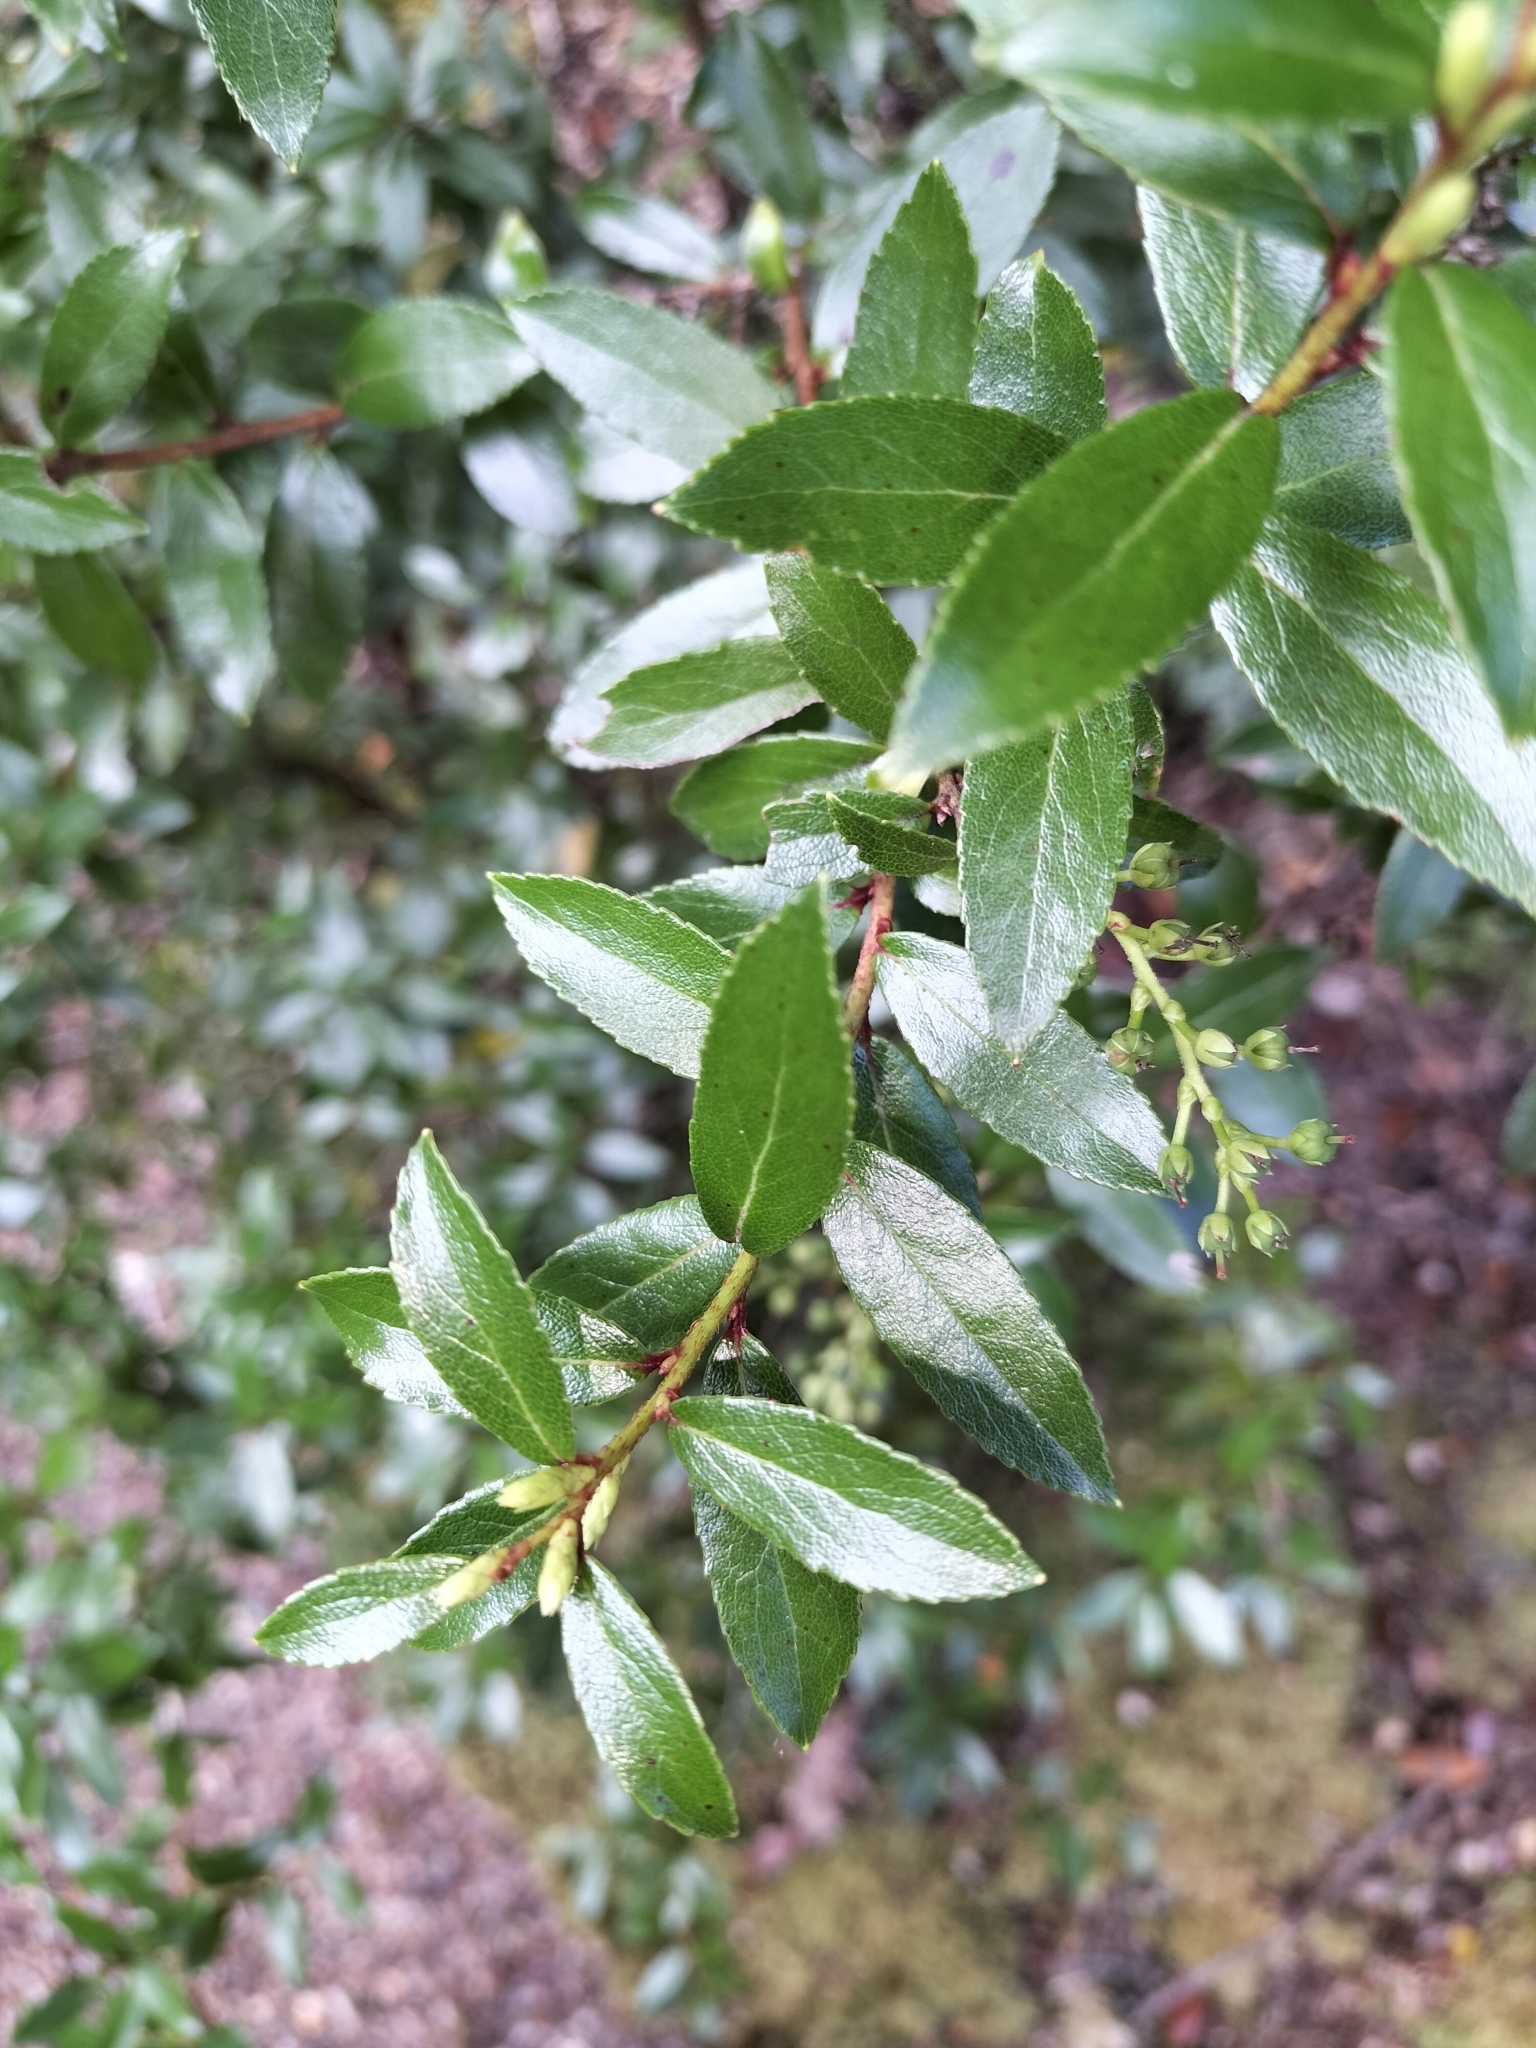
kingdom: Plantae
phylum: Tracheophyta
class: Magnoliopsida
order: Ericales
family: Ericaceae
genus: Gaultheria
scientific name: Gaultheria rupestris
